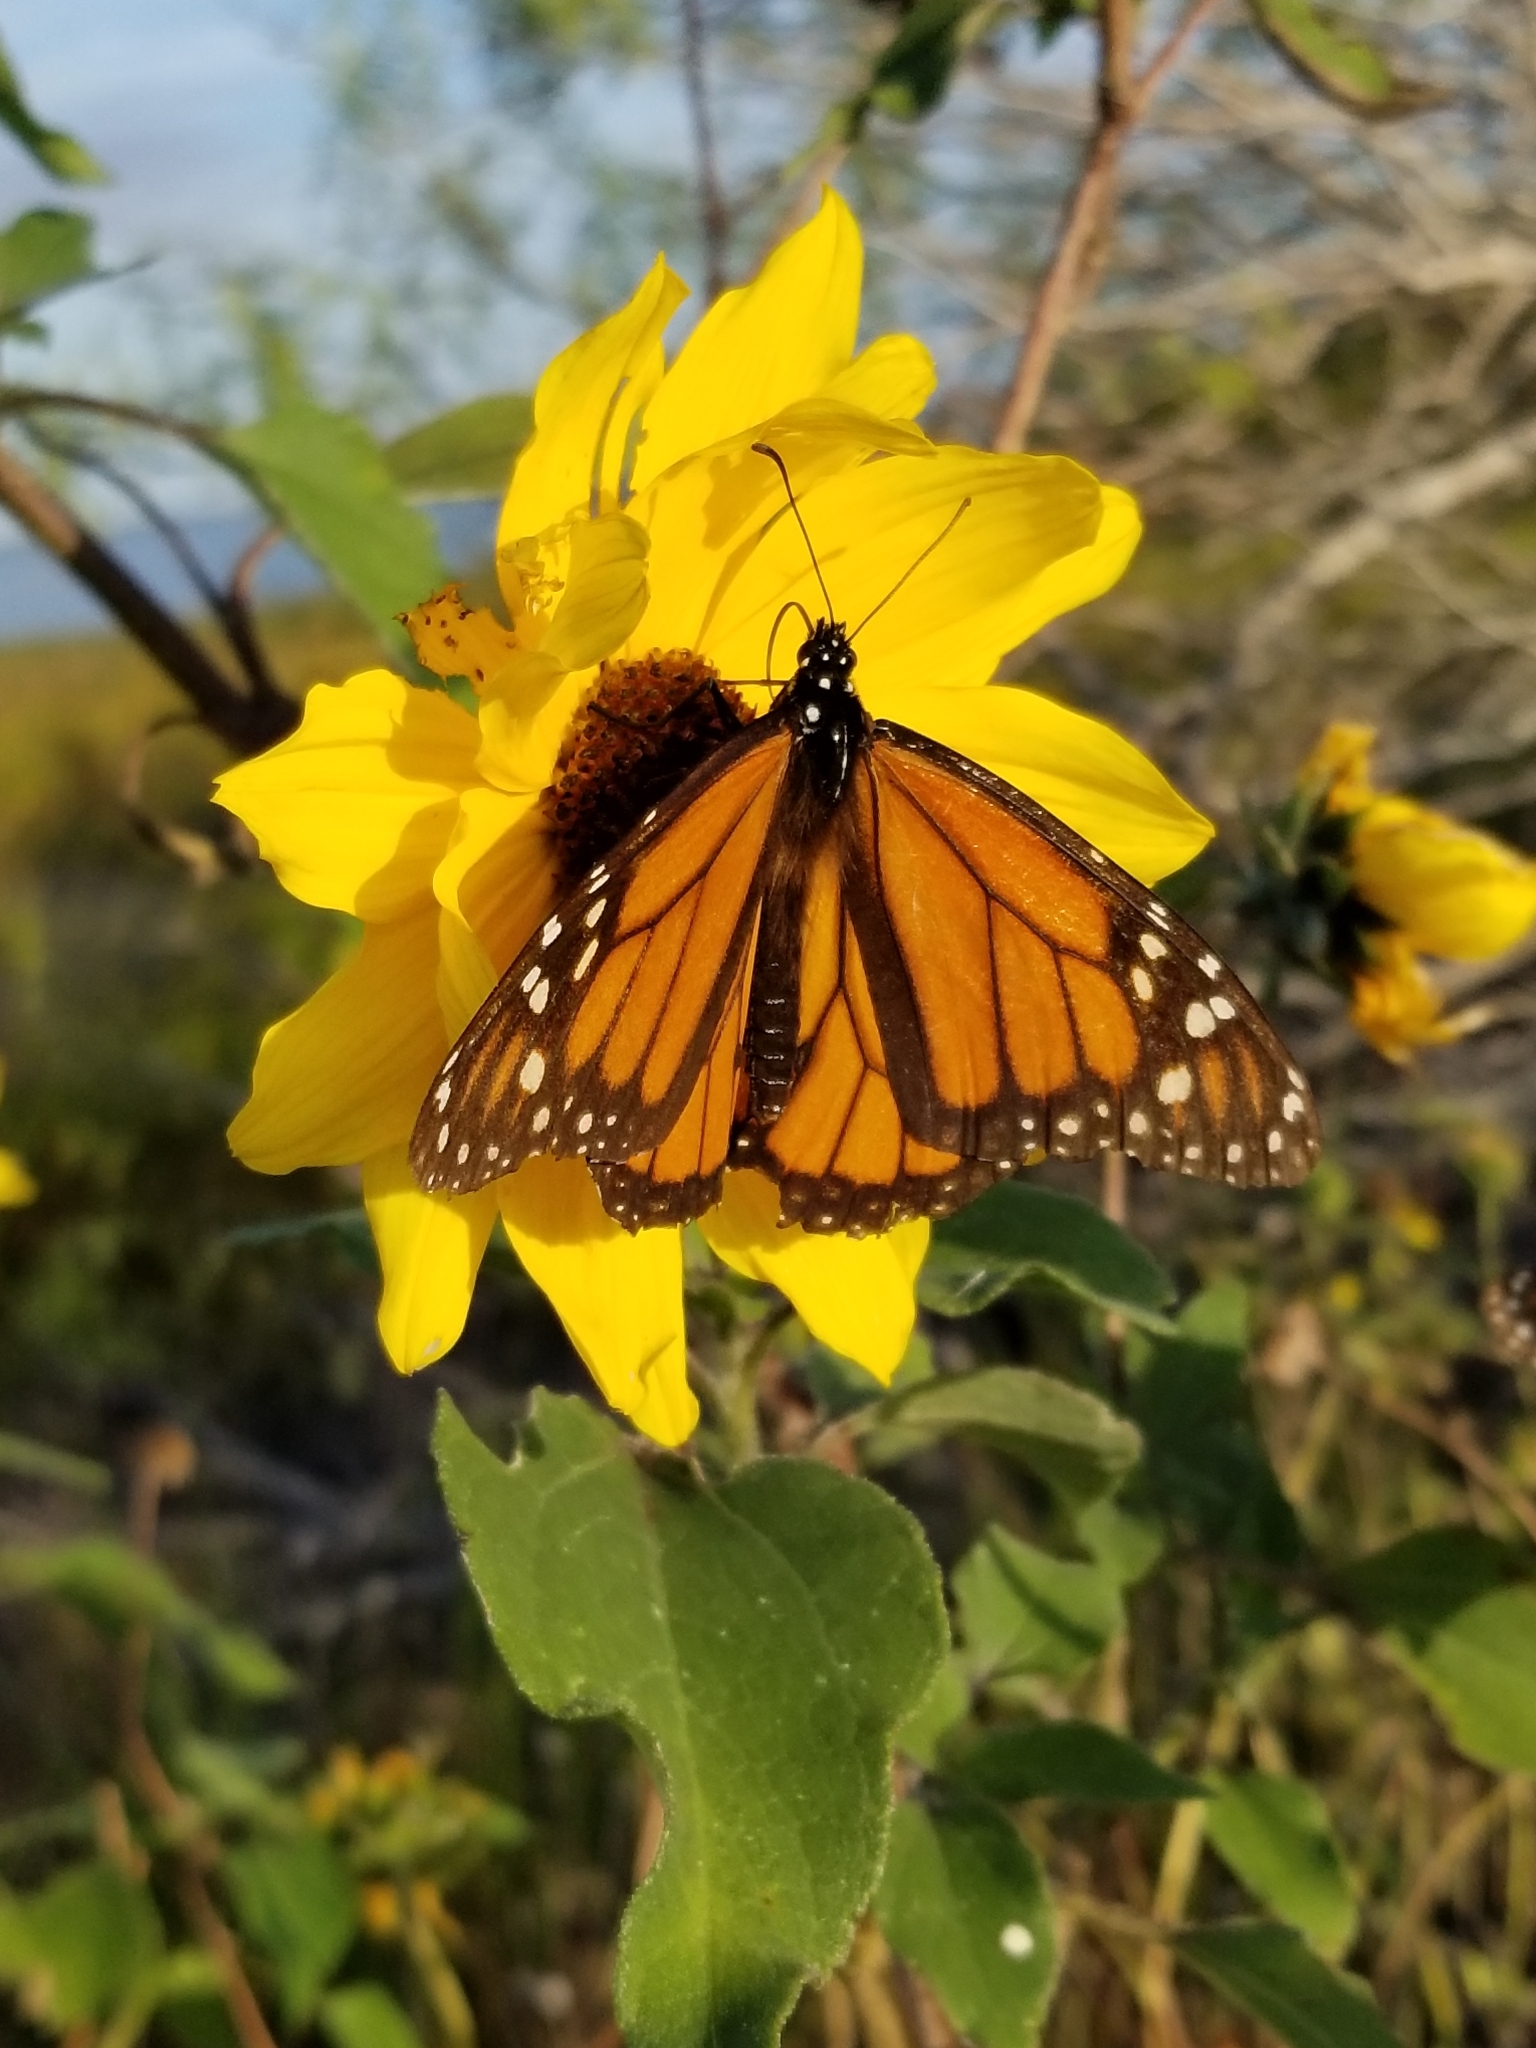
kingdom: Animalia
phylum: Arthropoda
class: Insecta
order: Lepidoptera
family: Nymphalidae
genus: Danaus
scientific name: Danaus plexippus
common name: Monarch
